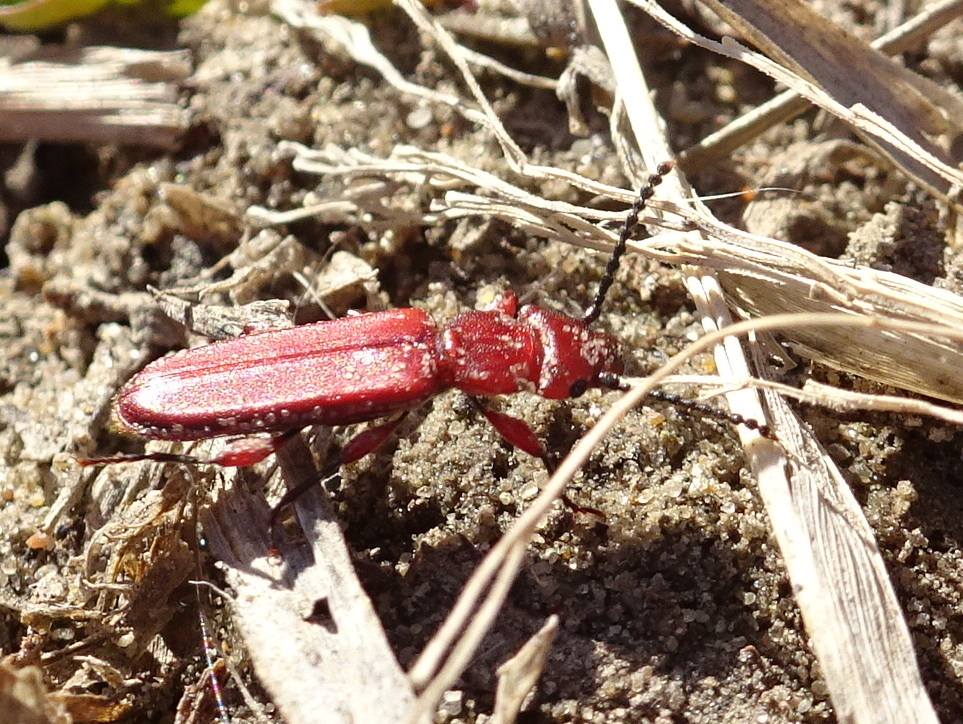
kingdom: Animalia
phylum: Arthropoda
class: Insecta
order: Coleoptera
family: Cucujidae
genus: Cucujus
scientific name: Cucujus clavipes
